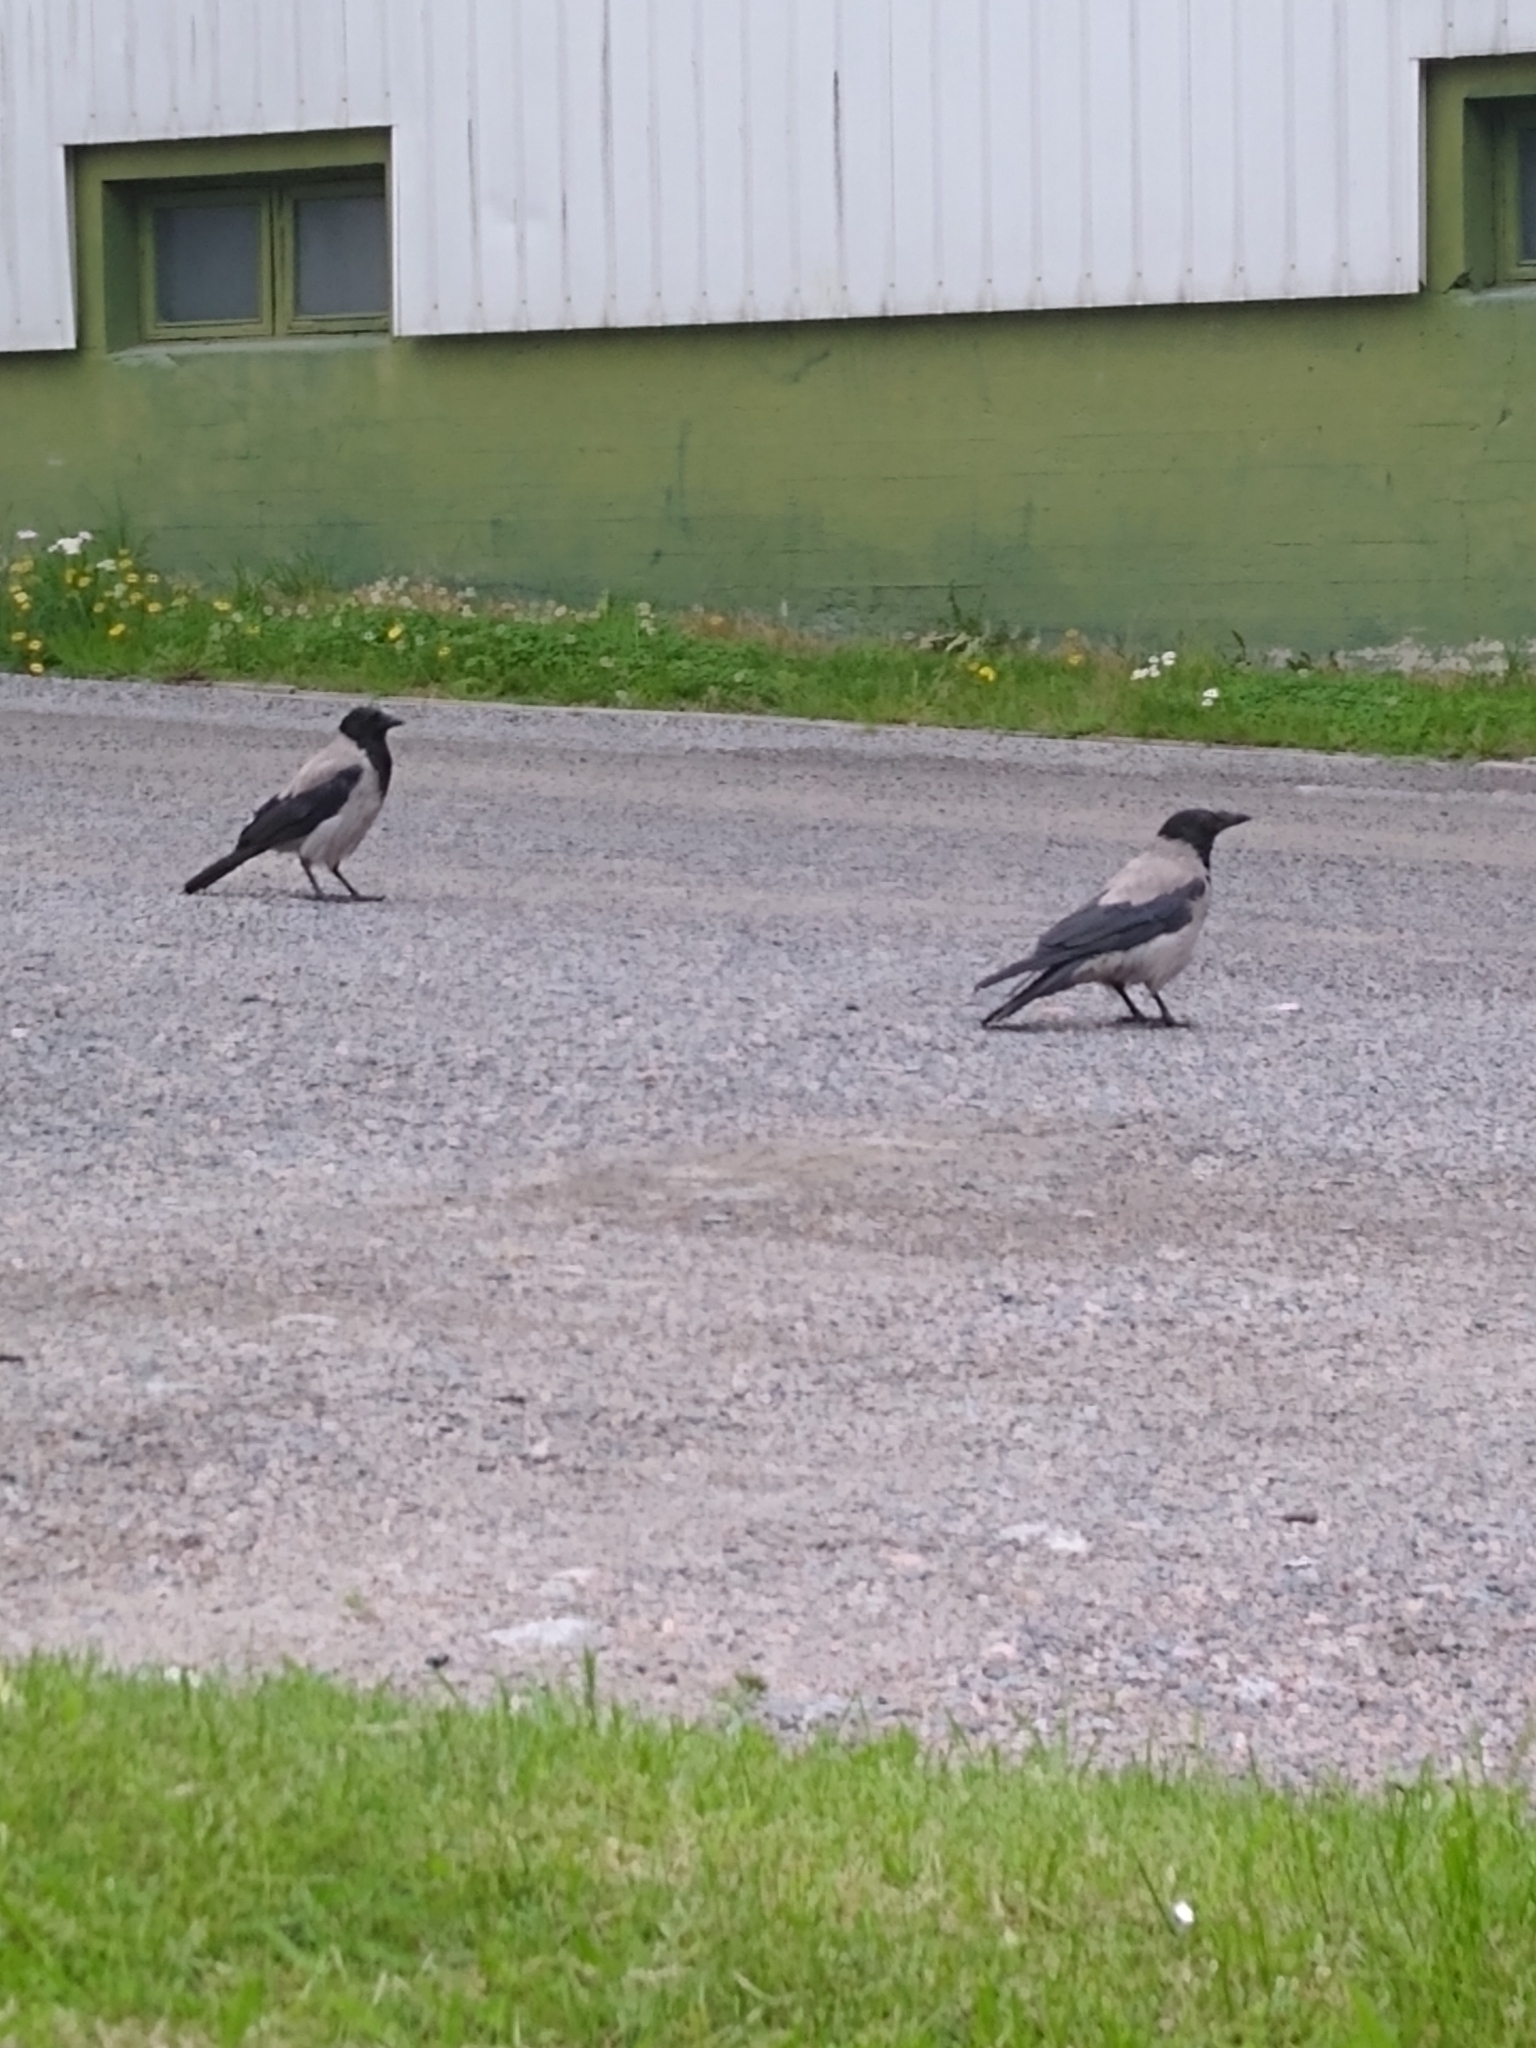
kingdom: Animalia
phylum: Chordata
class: Aves
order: Passeriformes
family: Corvidae
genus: Corvus
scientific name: Corvus cornix
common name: Hooded crow
